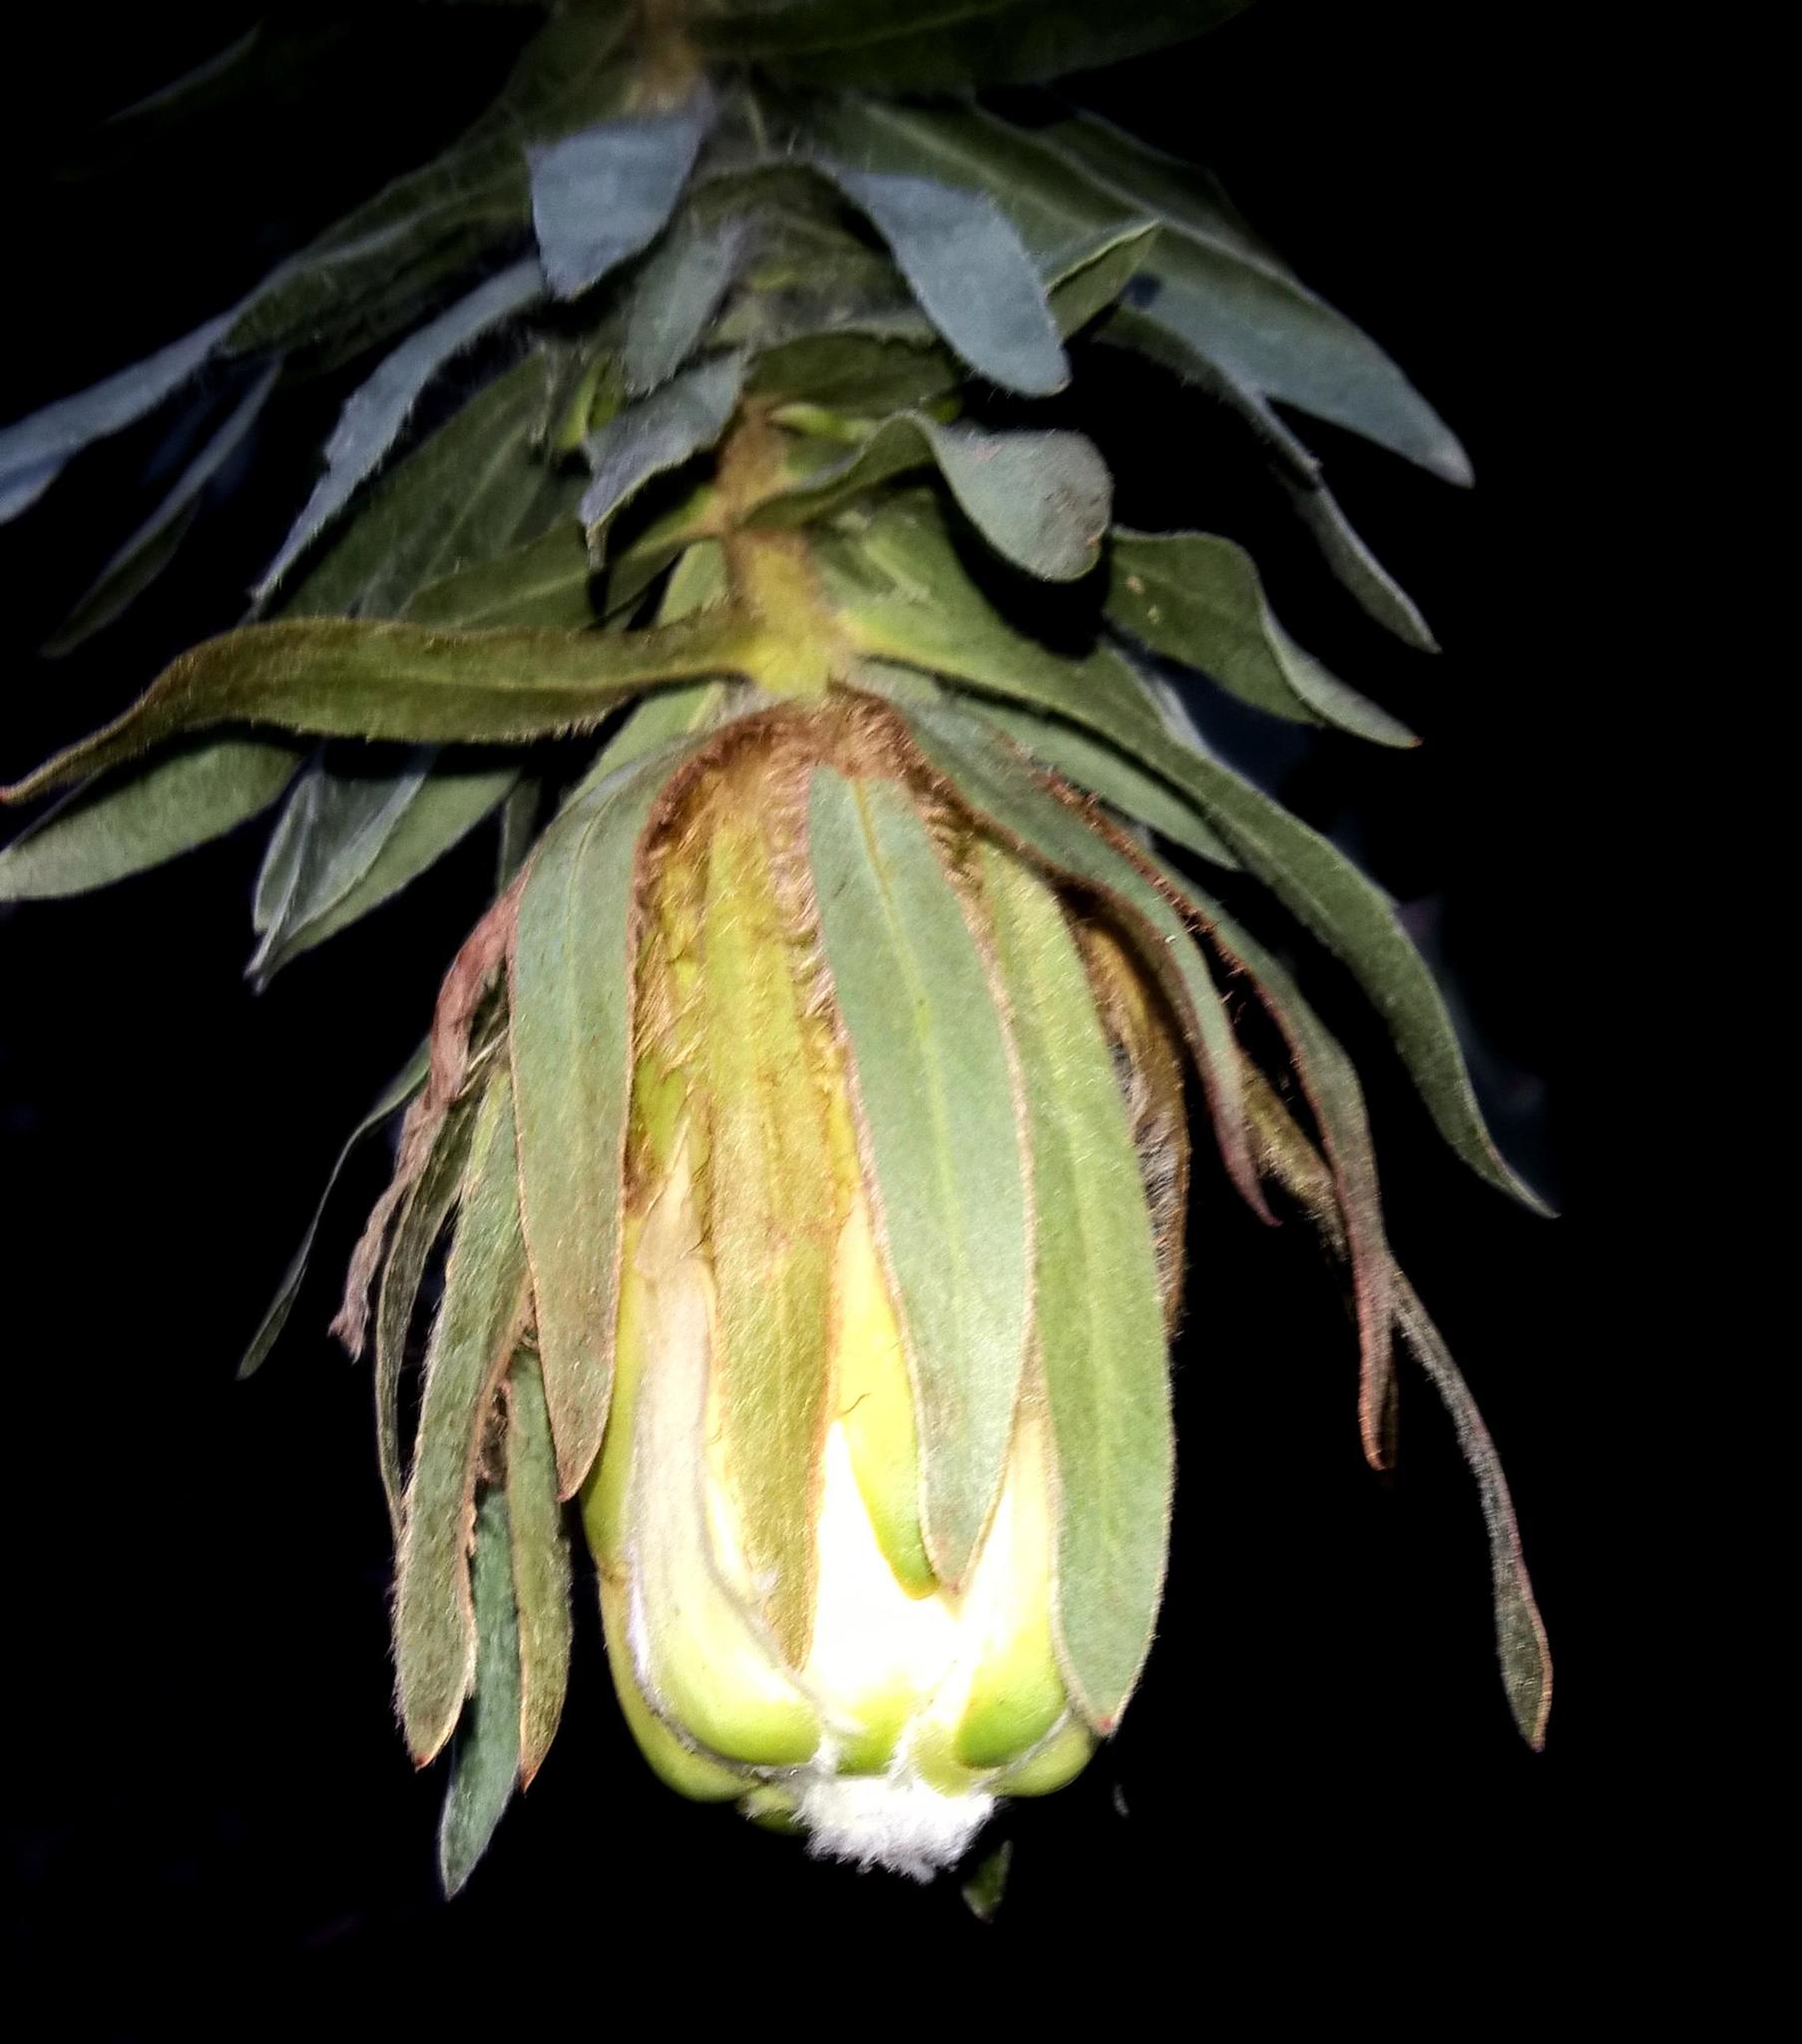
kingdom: Plantae
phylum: Tracheophyta
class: Magnoliopsida
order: Proteales
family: Proteaceae
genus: Protea
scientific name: Protea coronata
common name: Green sugarbush
